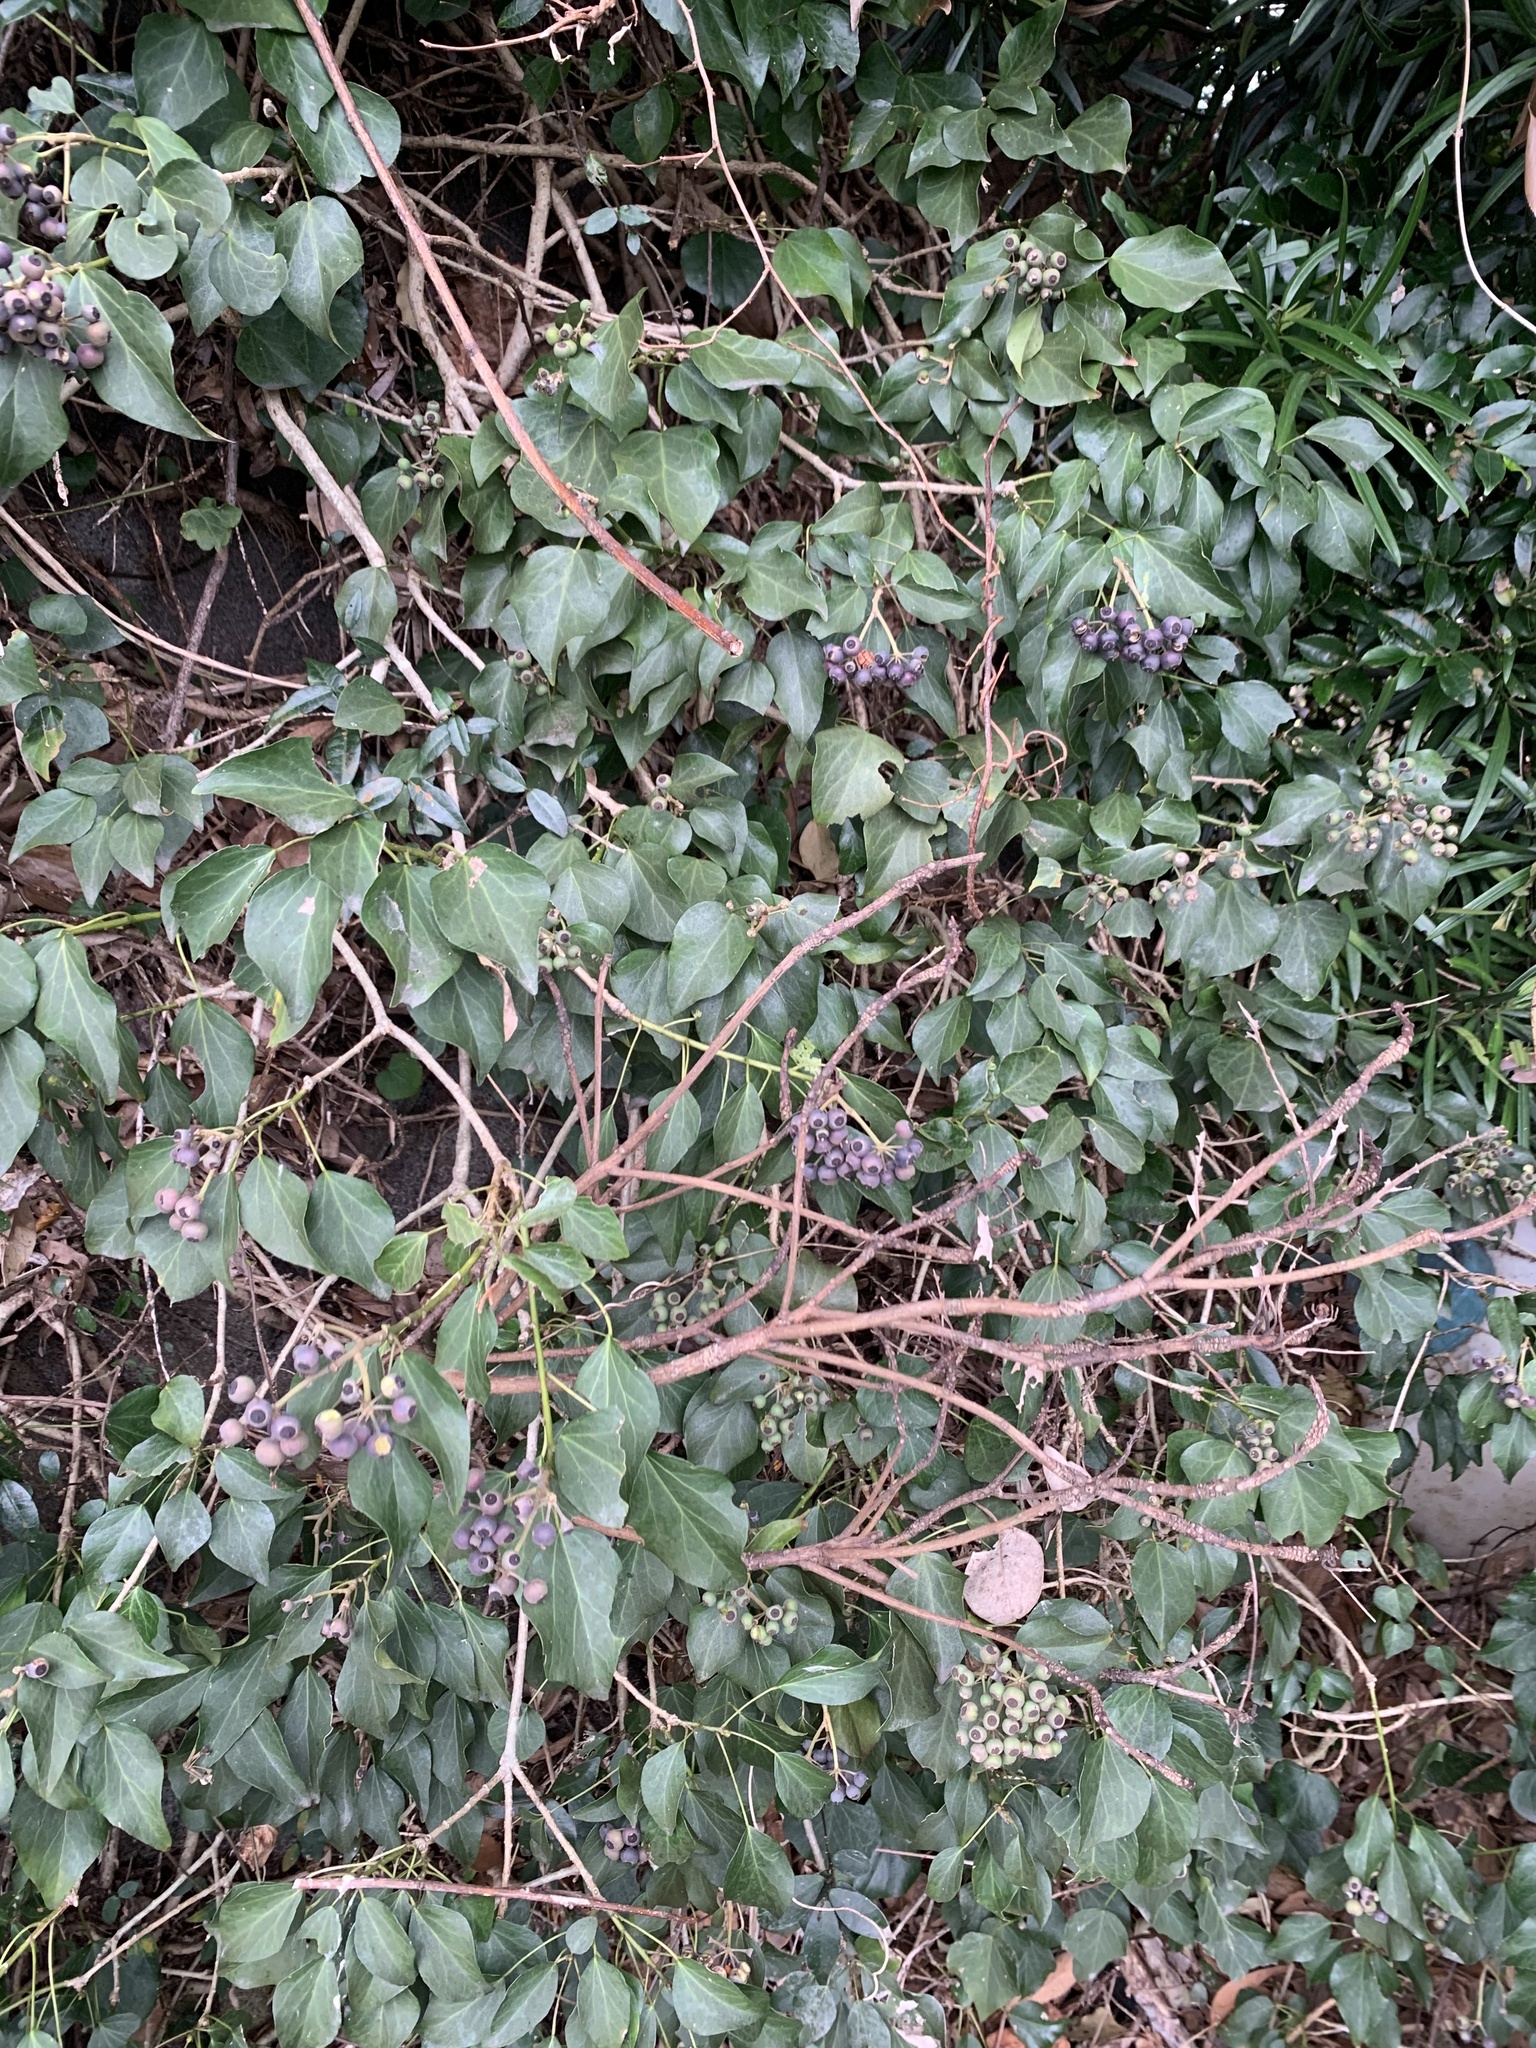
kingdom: Plantae
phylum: Tracheophyta
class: Magnoliopsida
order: Apiales
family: Araliaceae
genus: Hedera
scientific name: Hedera rhombea
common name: Japanese ivy
